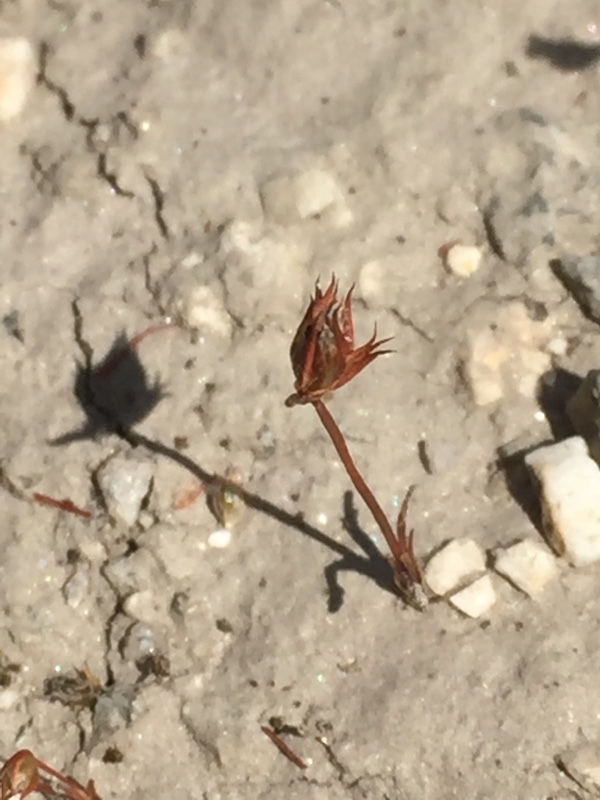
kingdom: Plantae
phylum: Tracheophyta
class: Liliopsida
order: Poales
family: Juncaceae
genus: Juncus
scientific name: Juncus capitatus
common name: Dwarf rush
